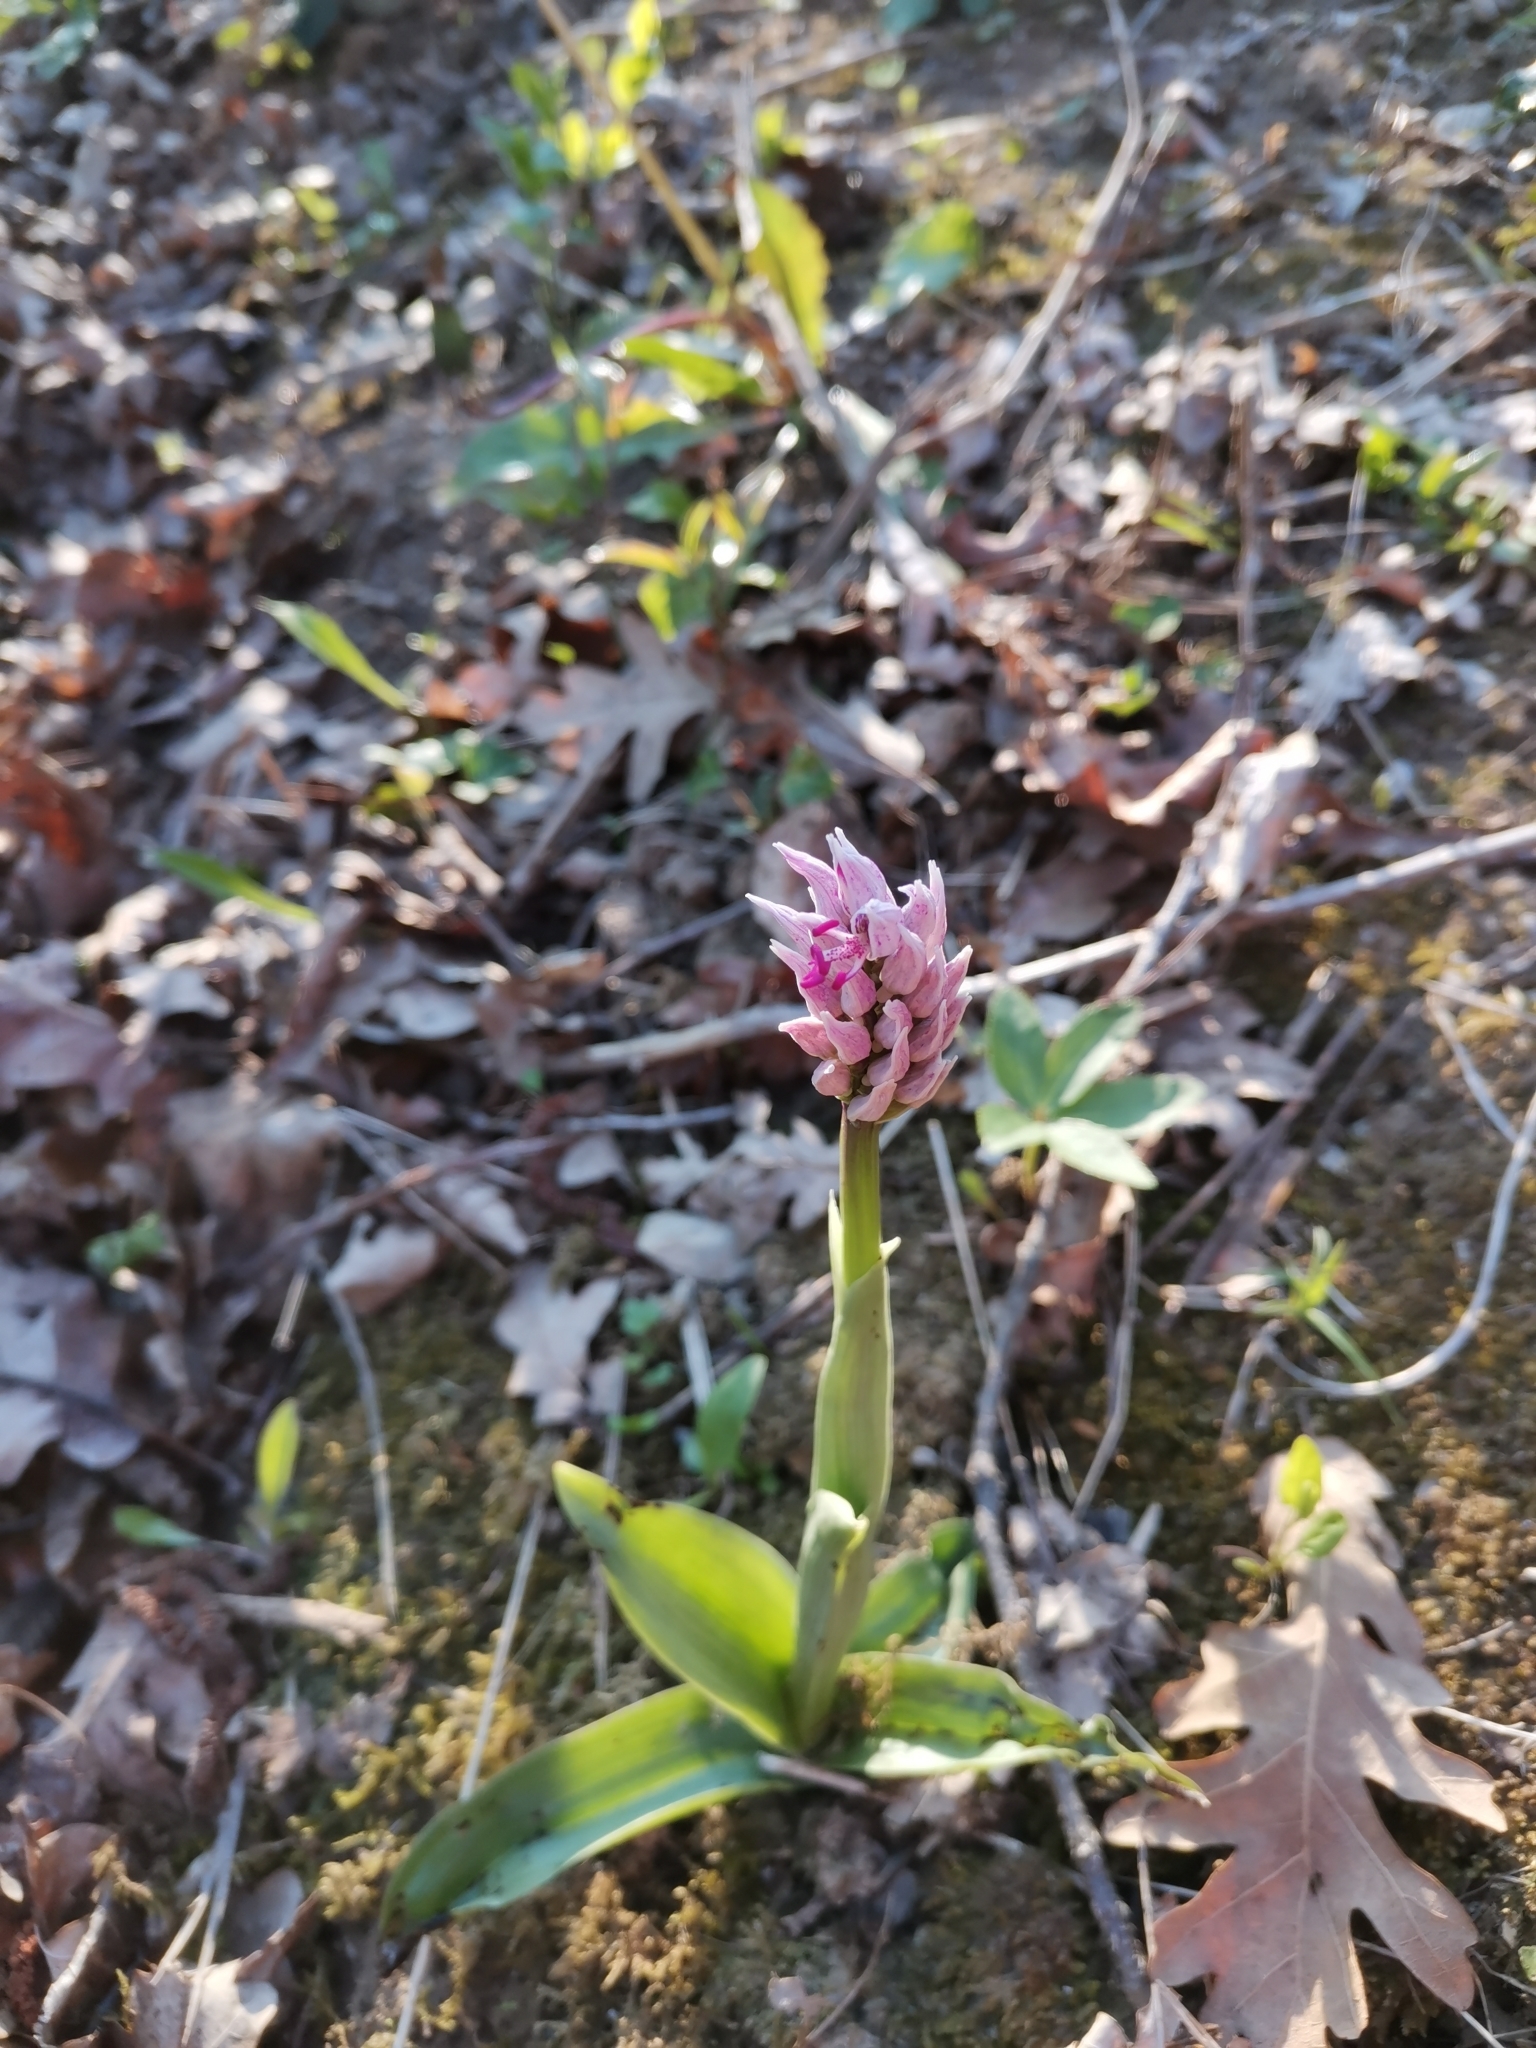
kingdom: Plantae
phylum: Tracheophyta
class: Liliopsida
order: Asparagales
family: Orchidaceae
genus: Orchis
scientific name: Orchis simia
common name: Monkey orchid
